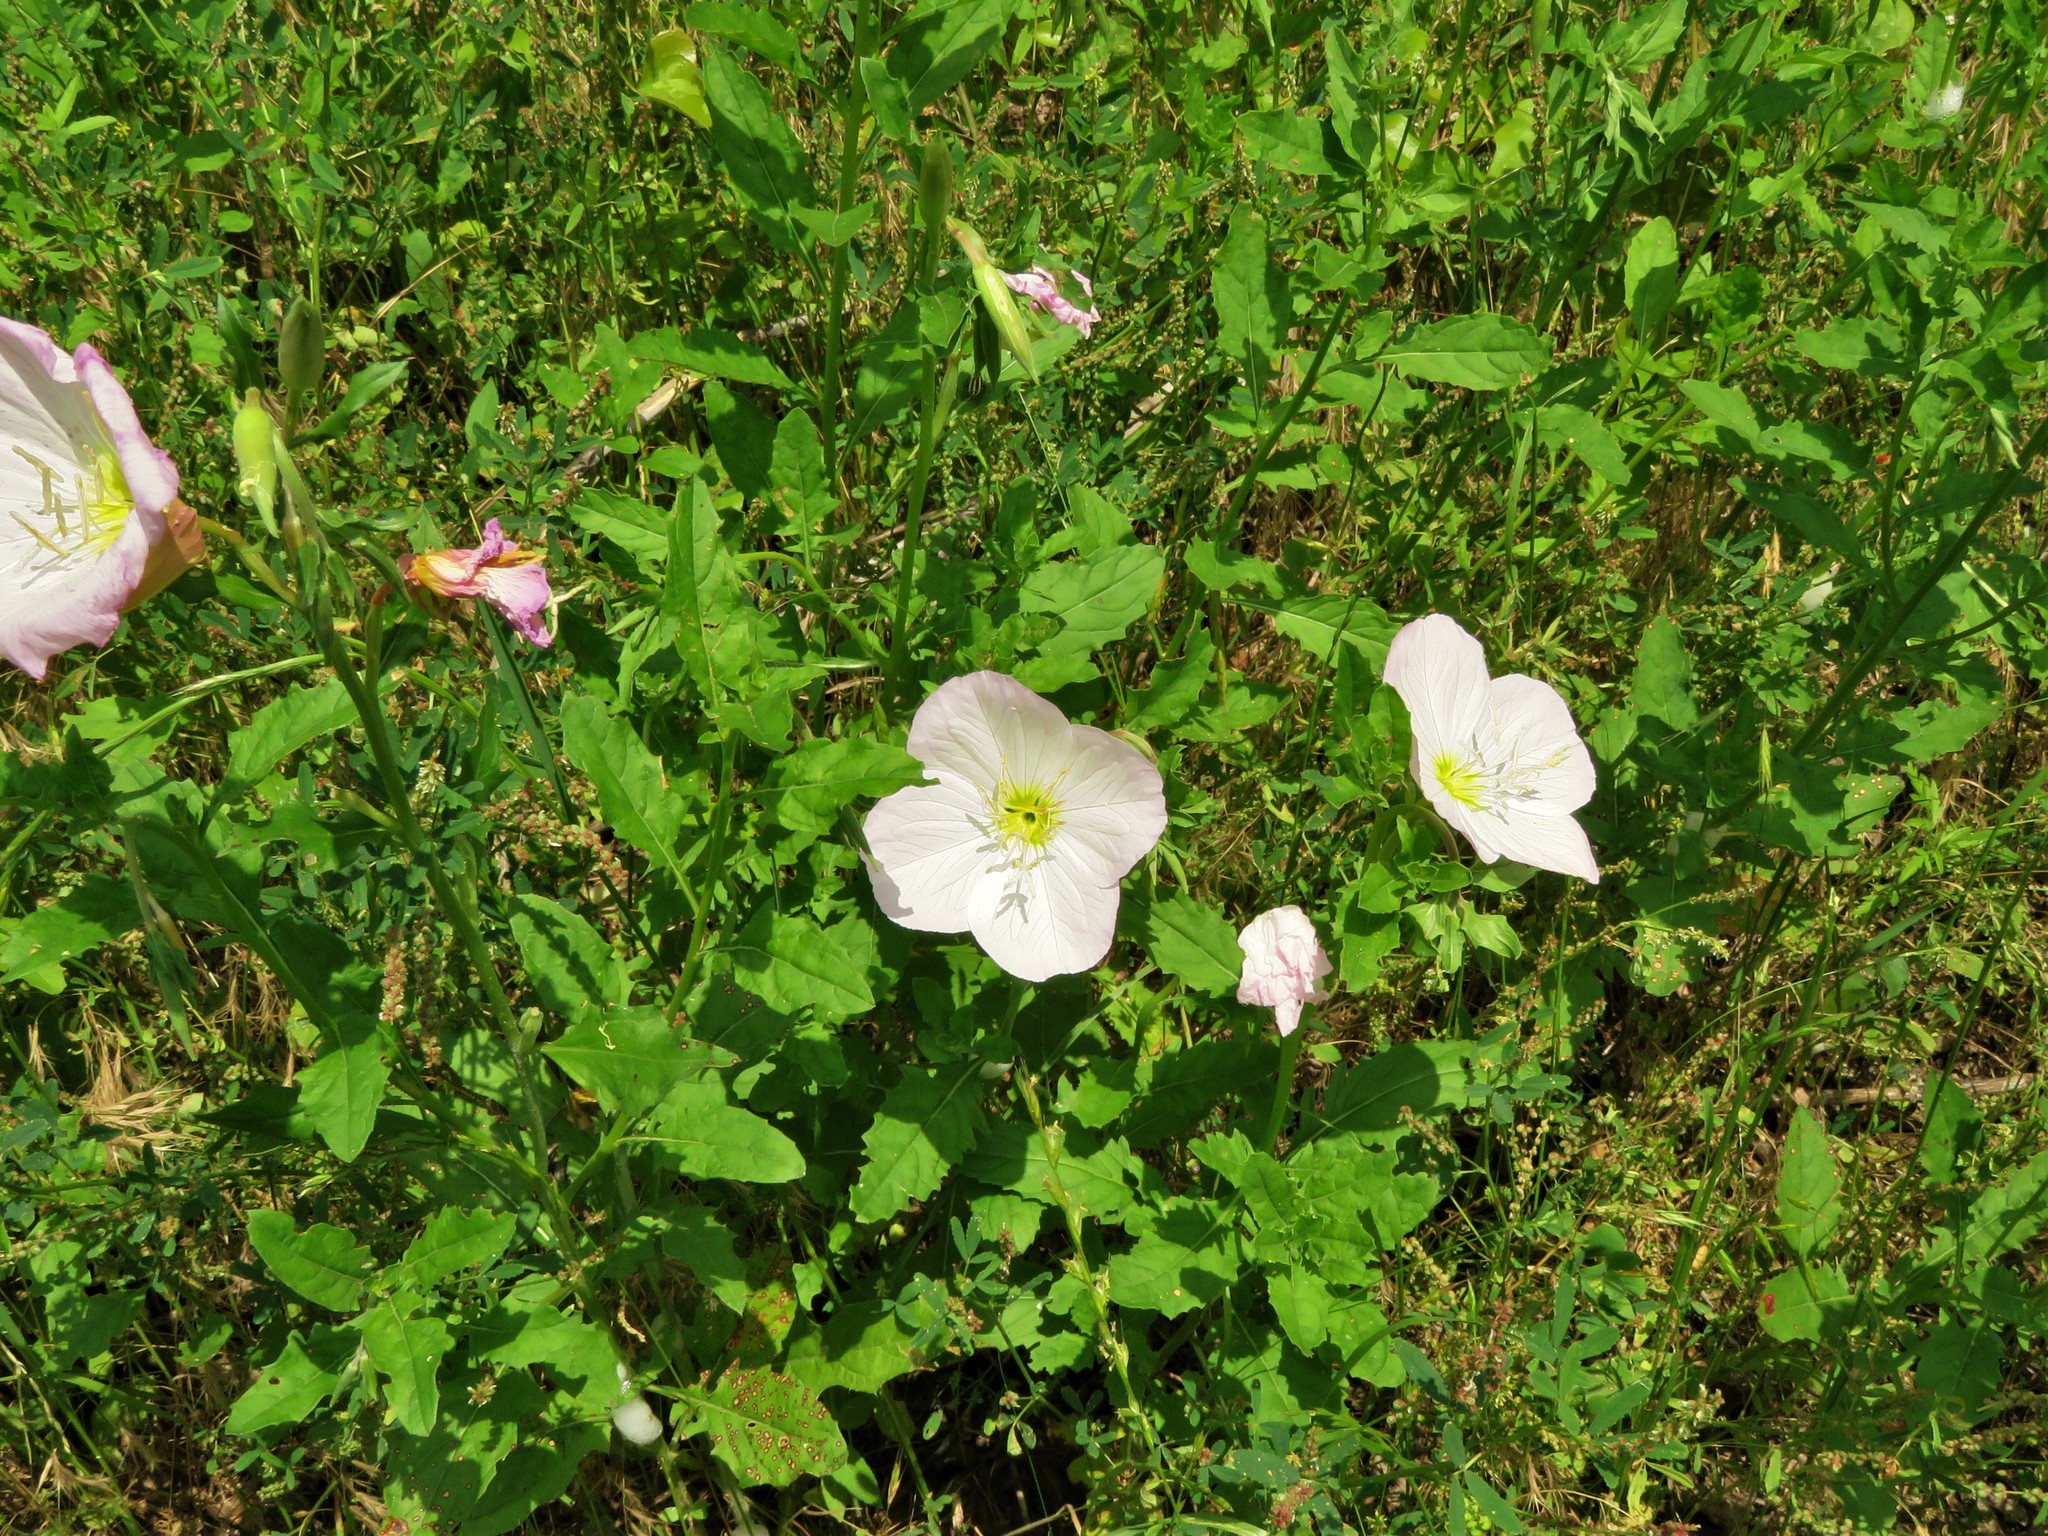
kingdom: Plantae
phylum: Tracheophyta
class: Magnoliopsida
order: Myrtales
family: Onagraceae
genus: Oenothera
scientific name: Oenothera speciosa
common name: White evening-primrose
